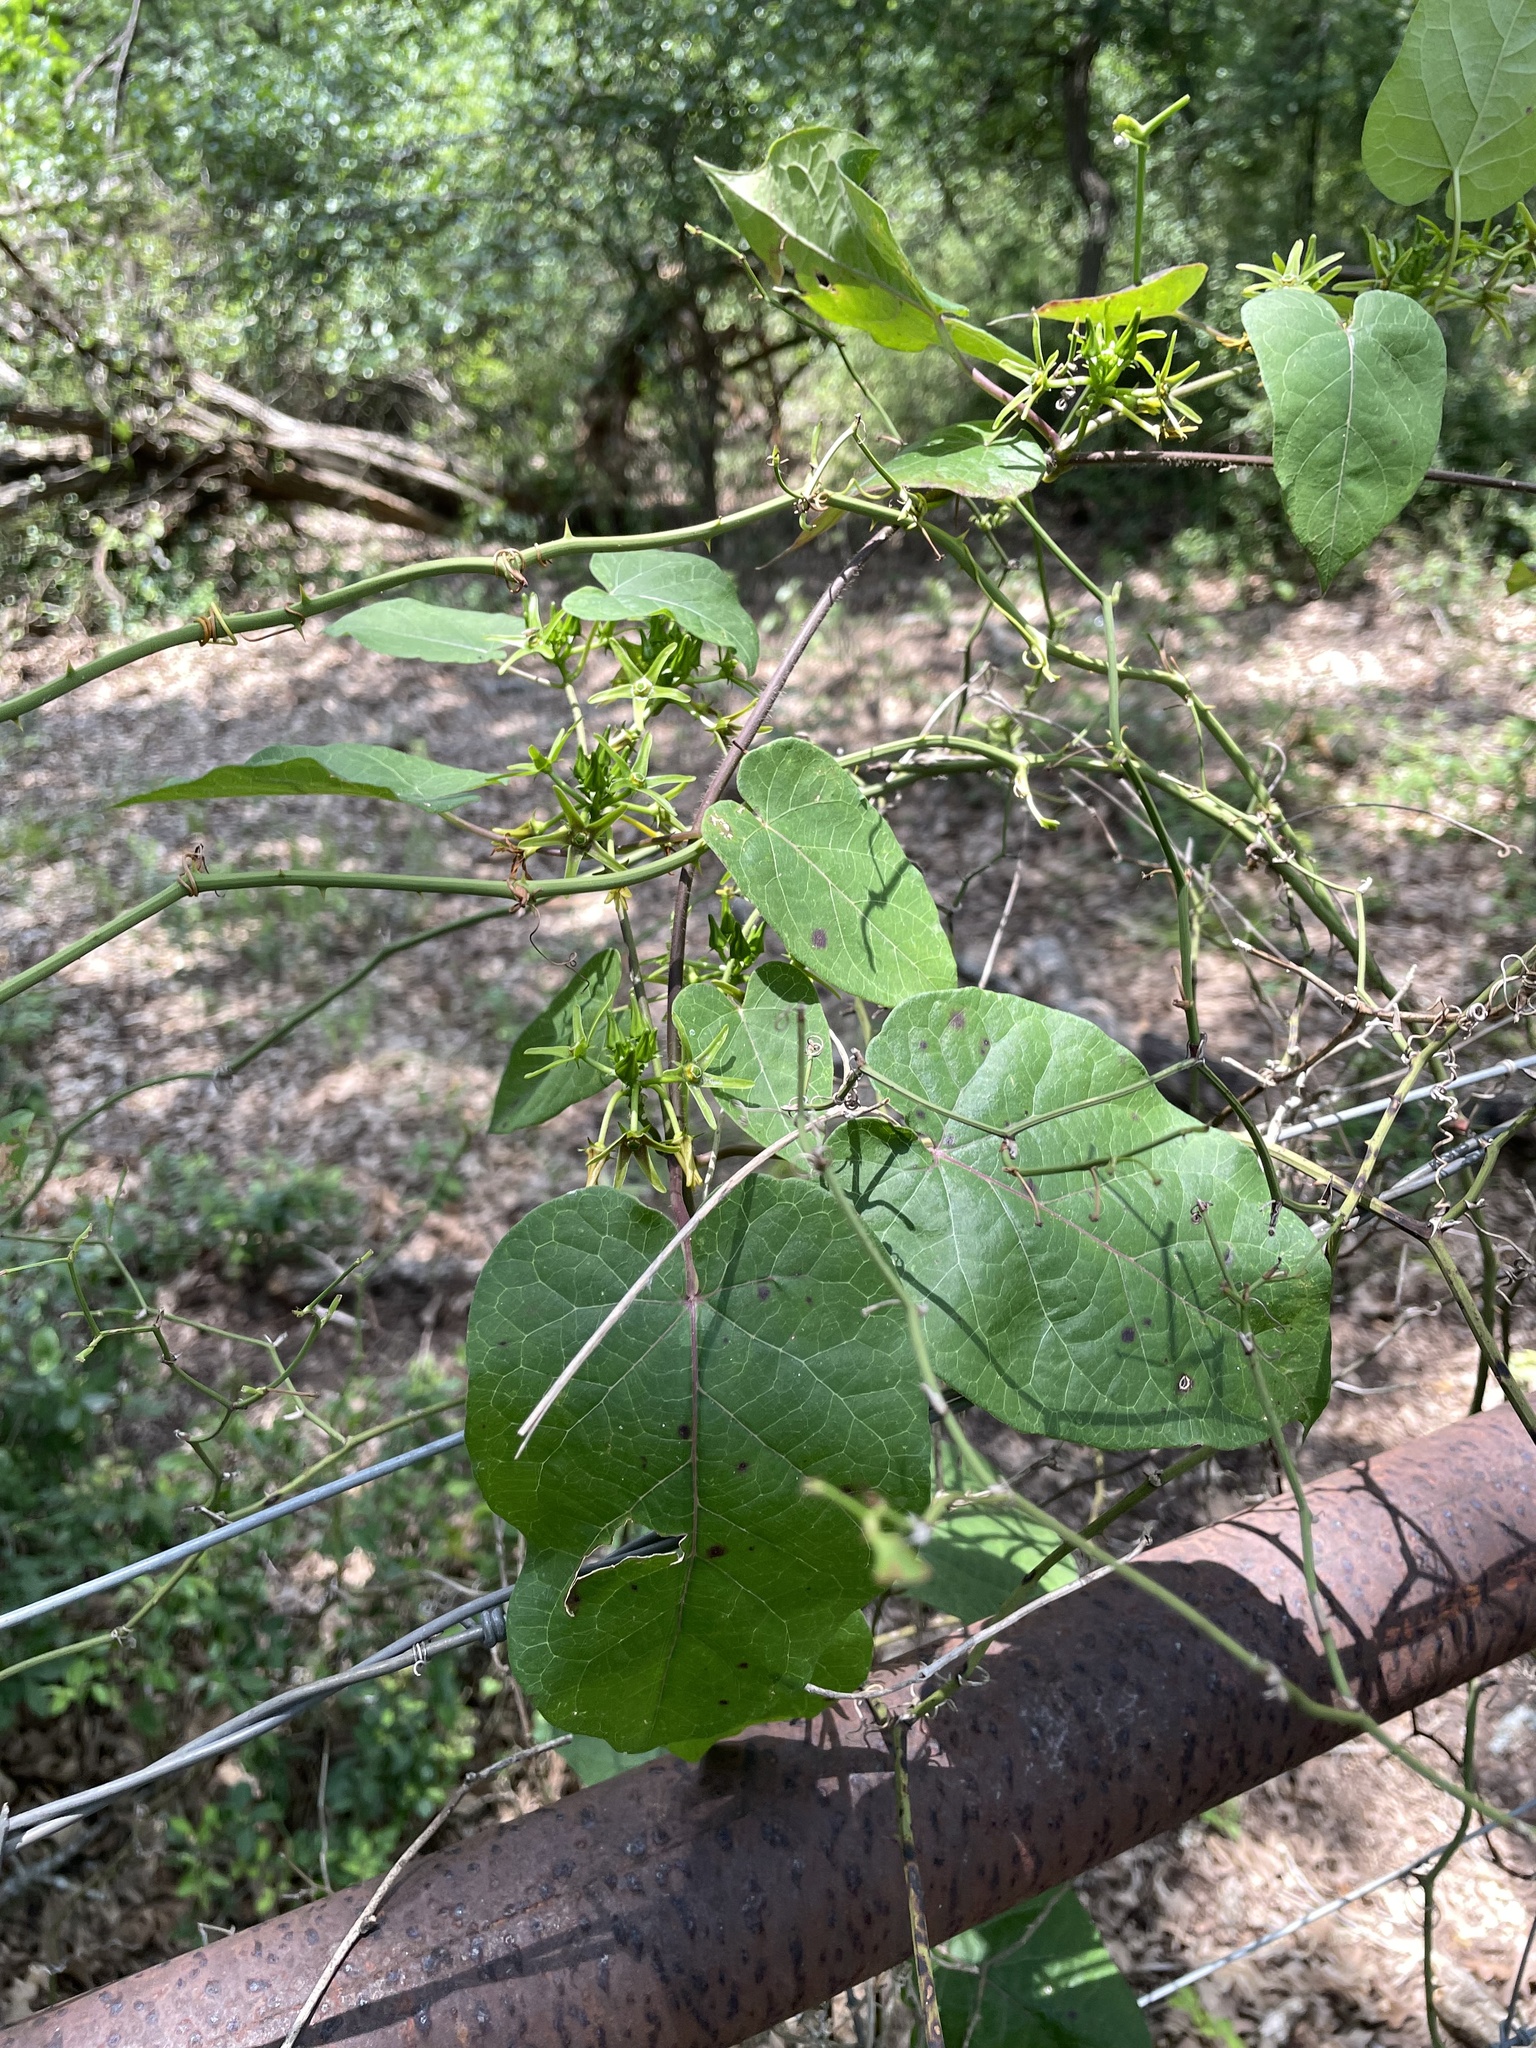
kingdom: Plantae
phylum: Tracheophyta
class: Magnoliopsida
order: Gentianales
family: Apocynaceae
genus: Gonolobus
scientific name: Gonolobus suberosus
